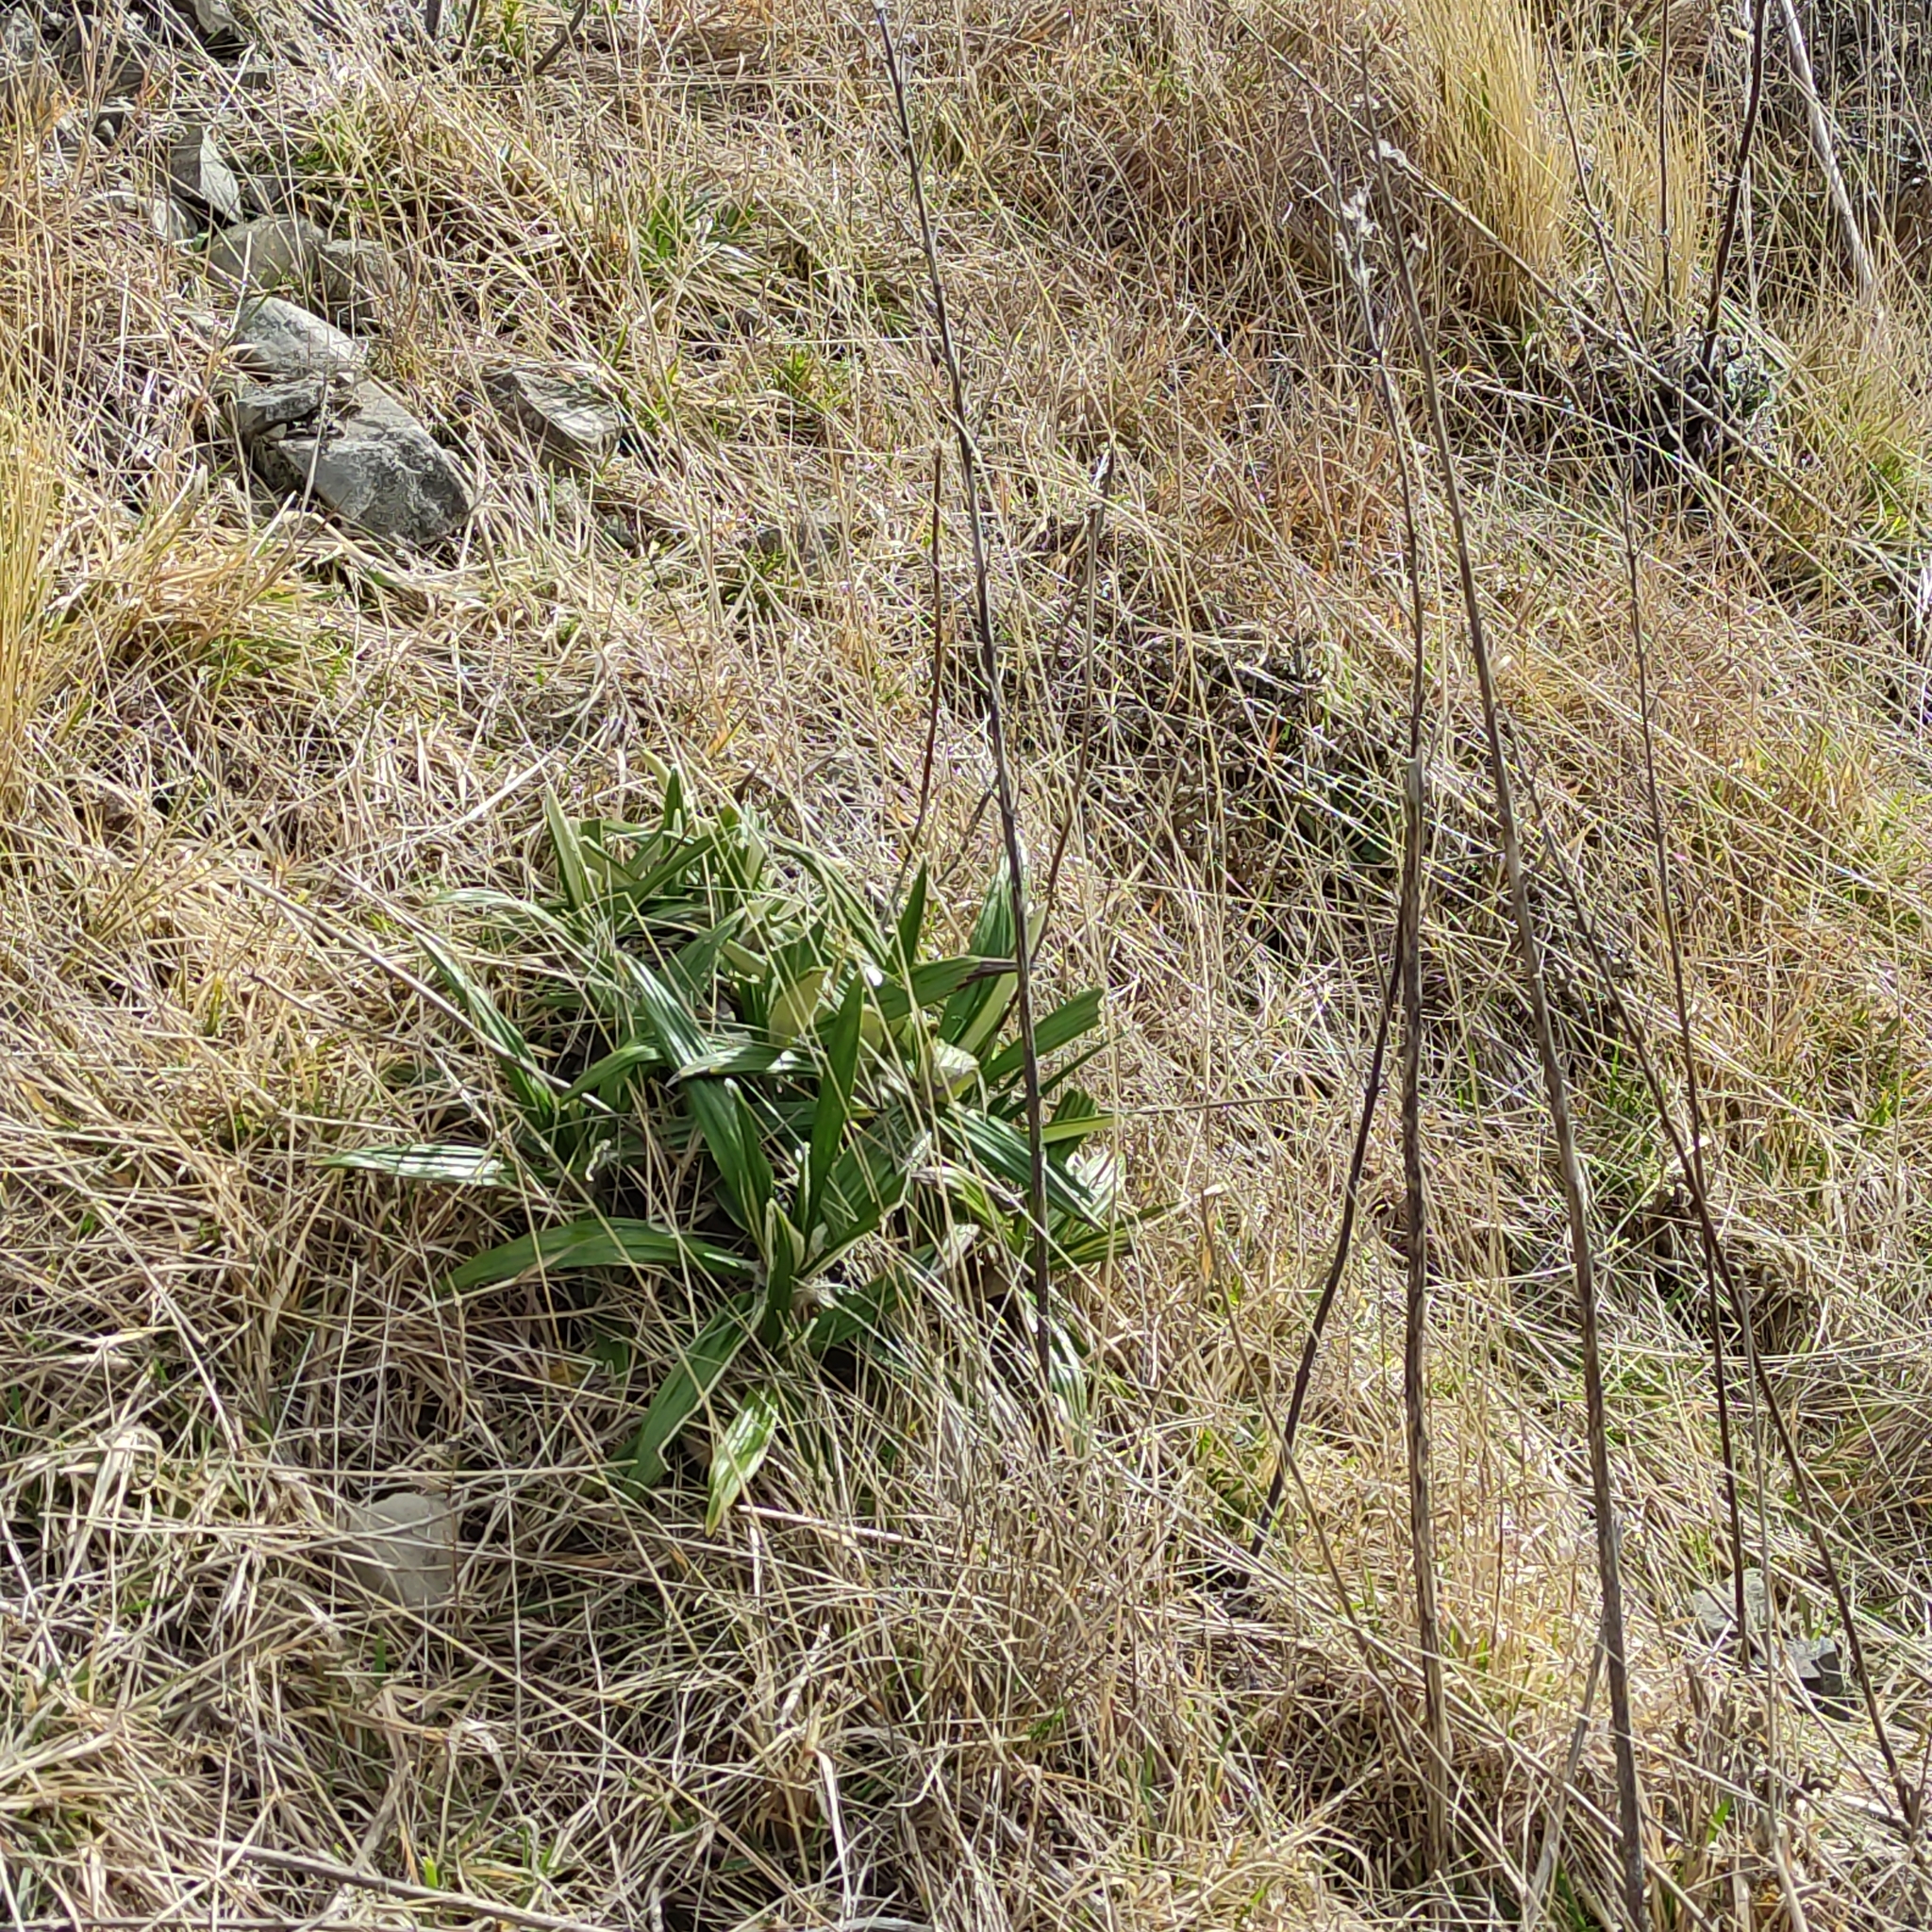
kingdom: Plantae
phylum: Tracheophyta
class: Magnoliopsida
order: Asterales
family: Asteraceae
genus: Celmisia
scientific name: Celmisia spectabilis
